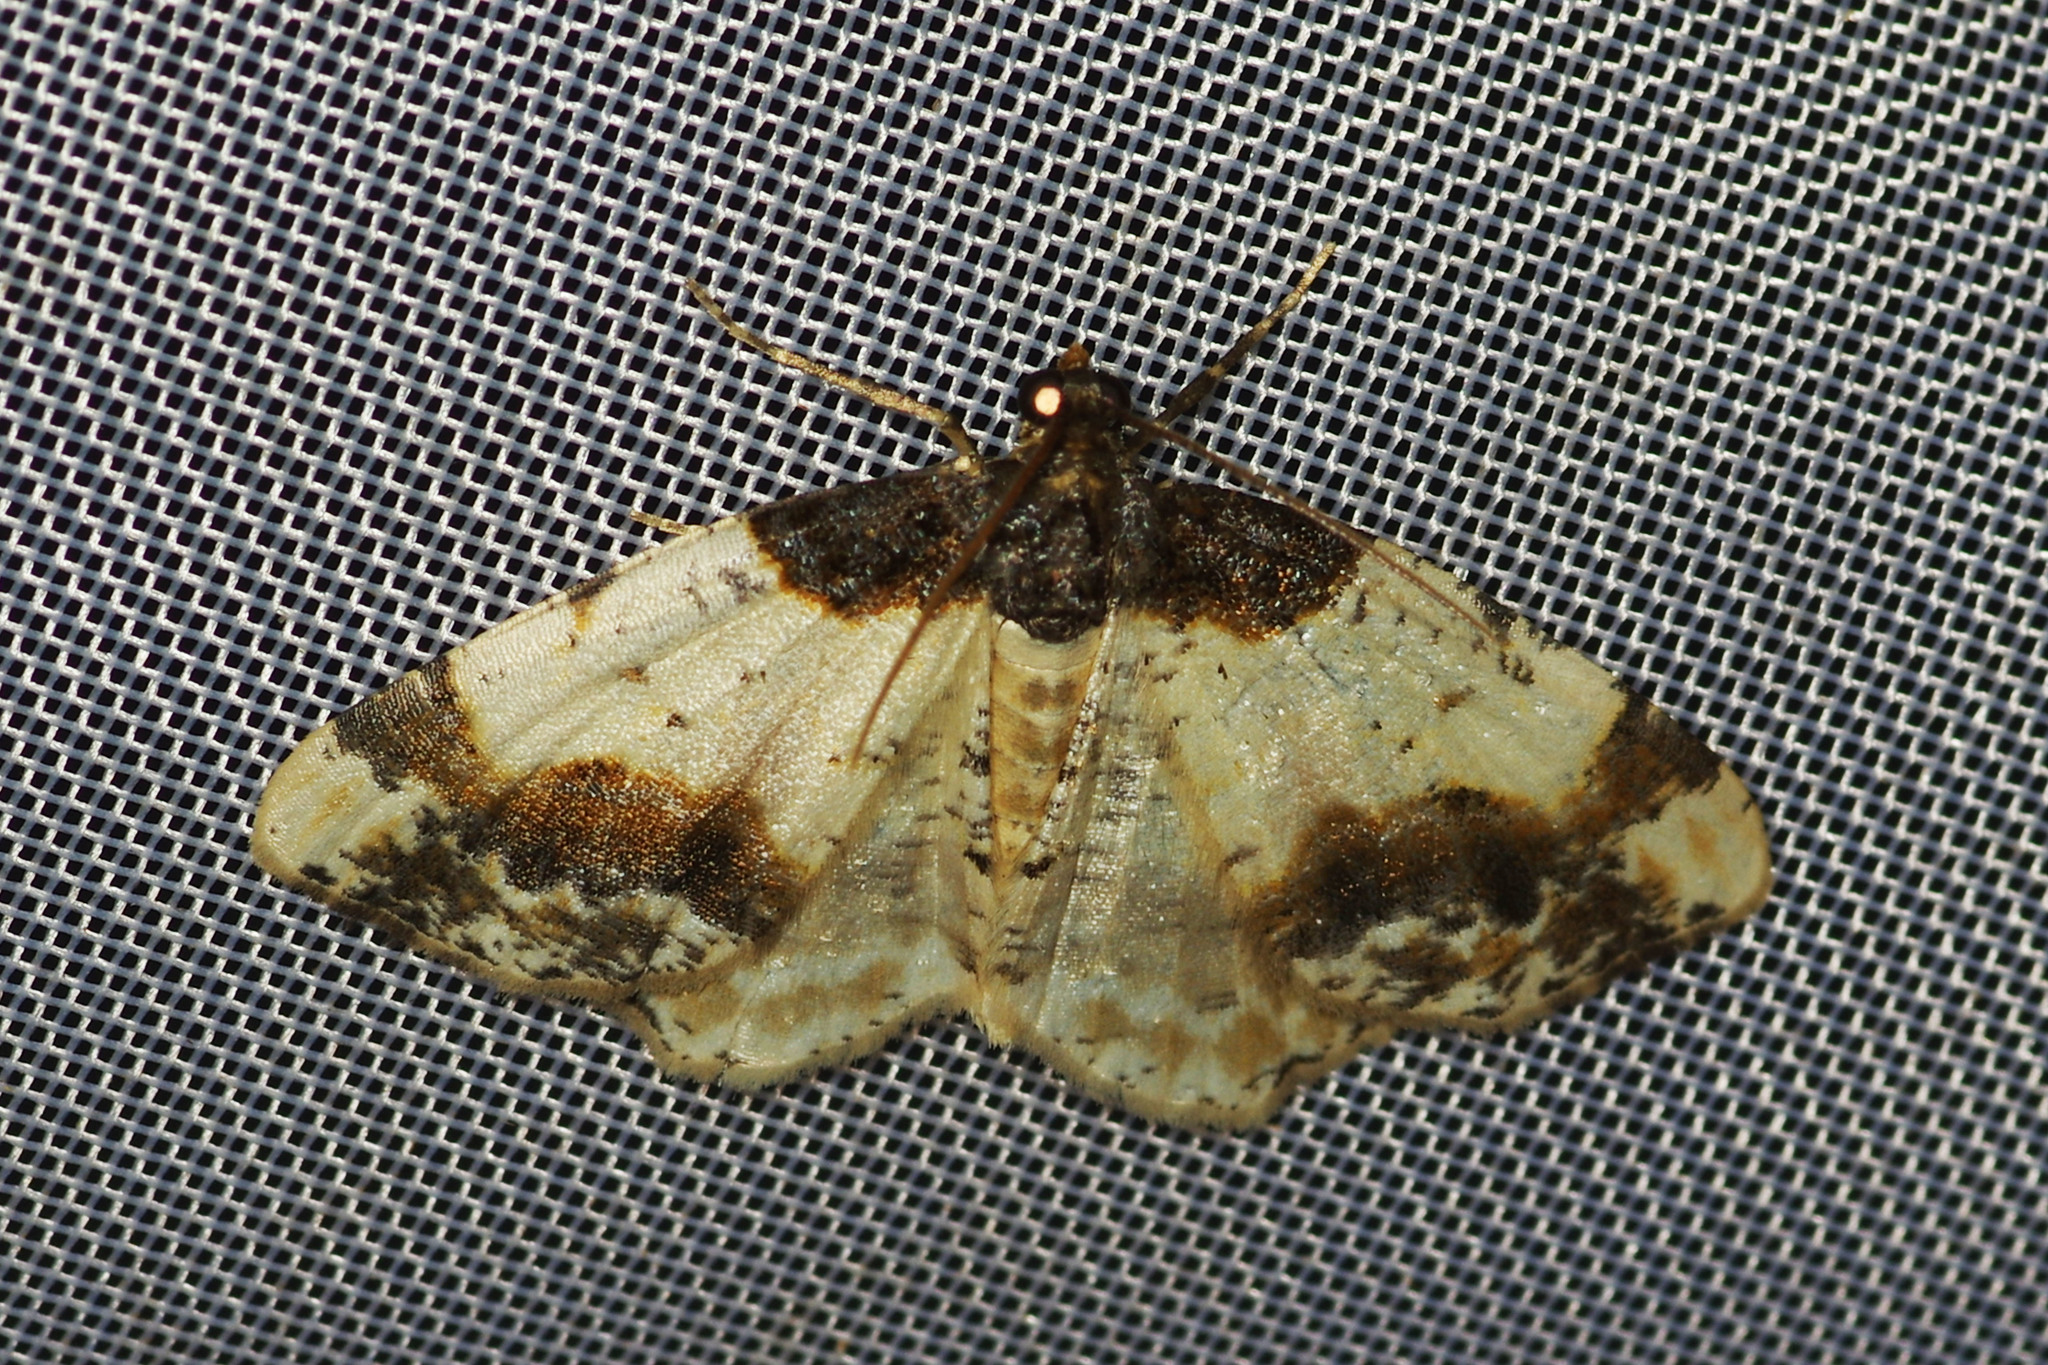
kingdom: Animalia
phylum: Arthropoda
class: Insecta
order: Lepidoptera
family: Geometridae
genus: Ligdia
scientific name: Ligdia adustata
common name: Scorched carpet
